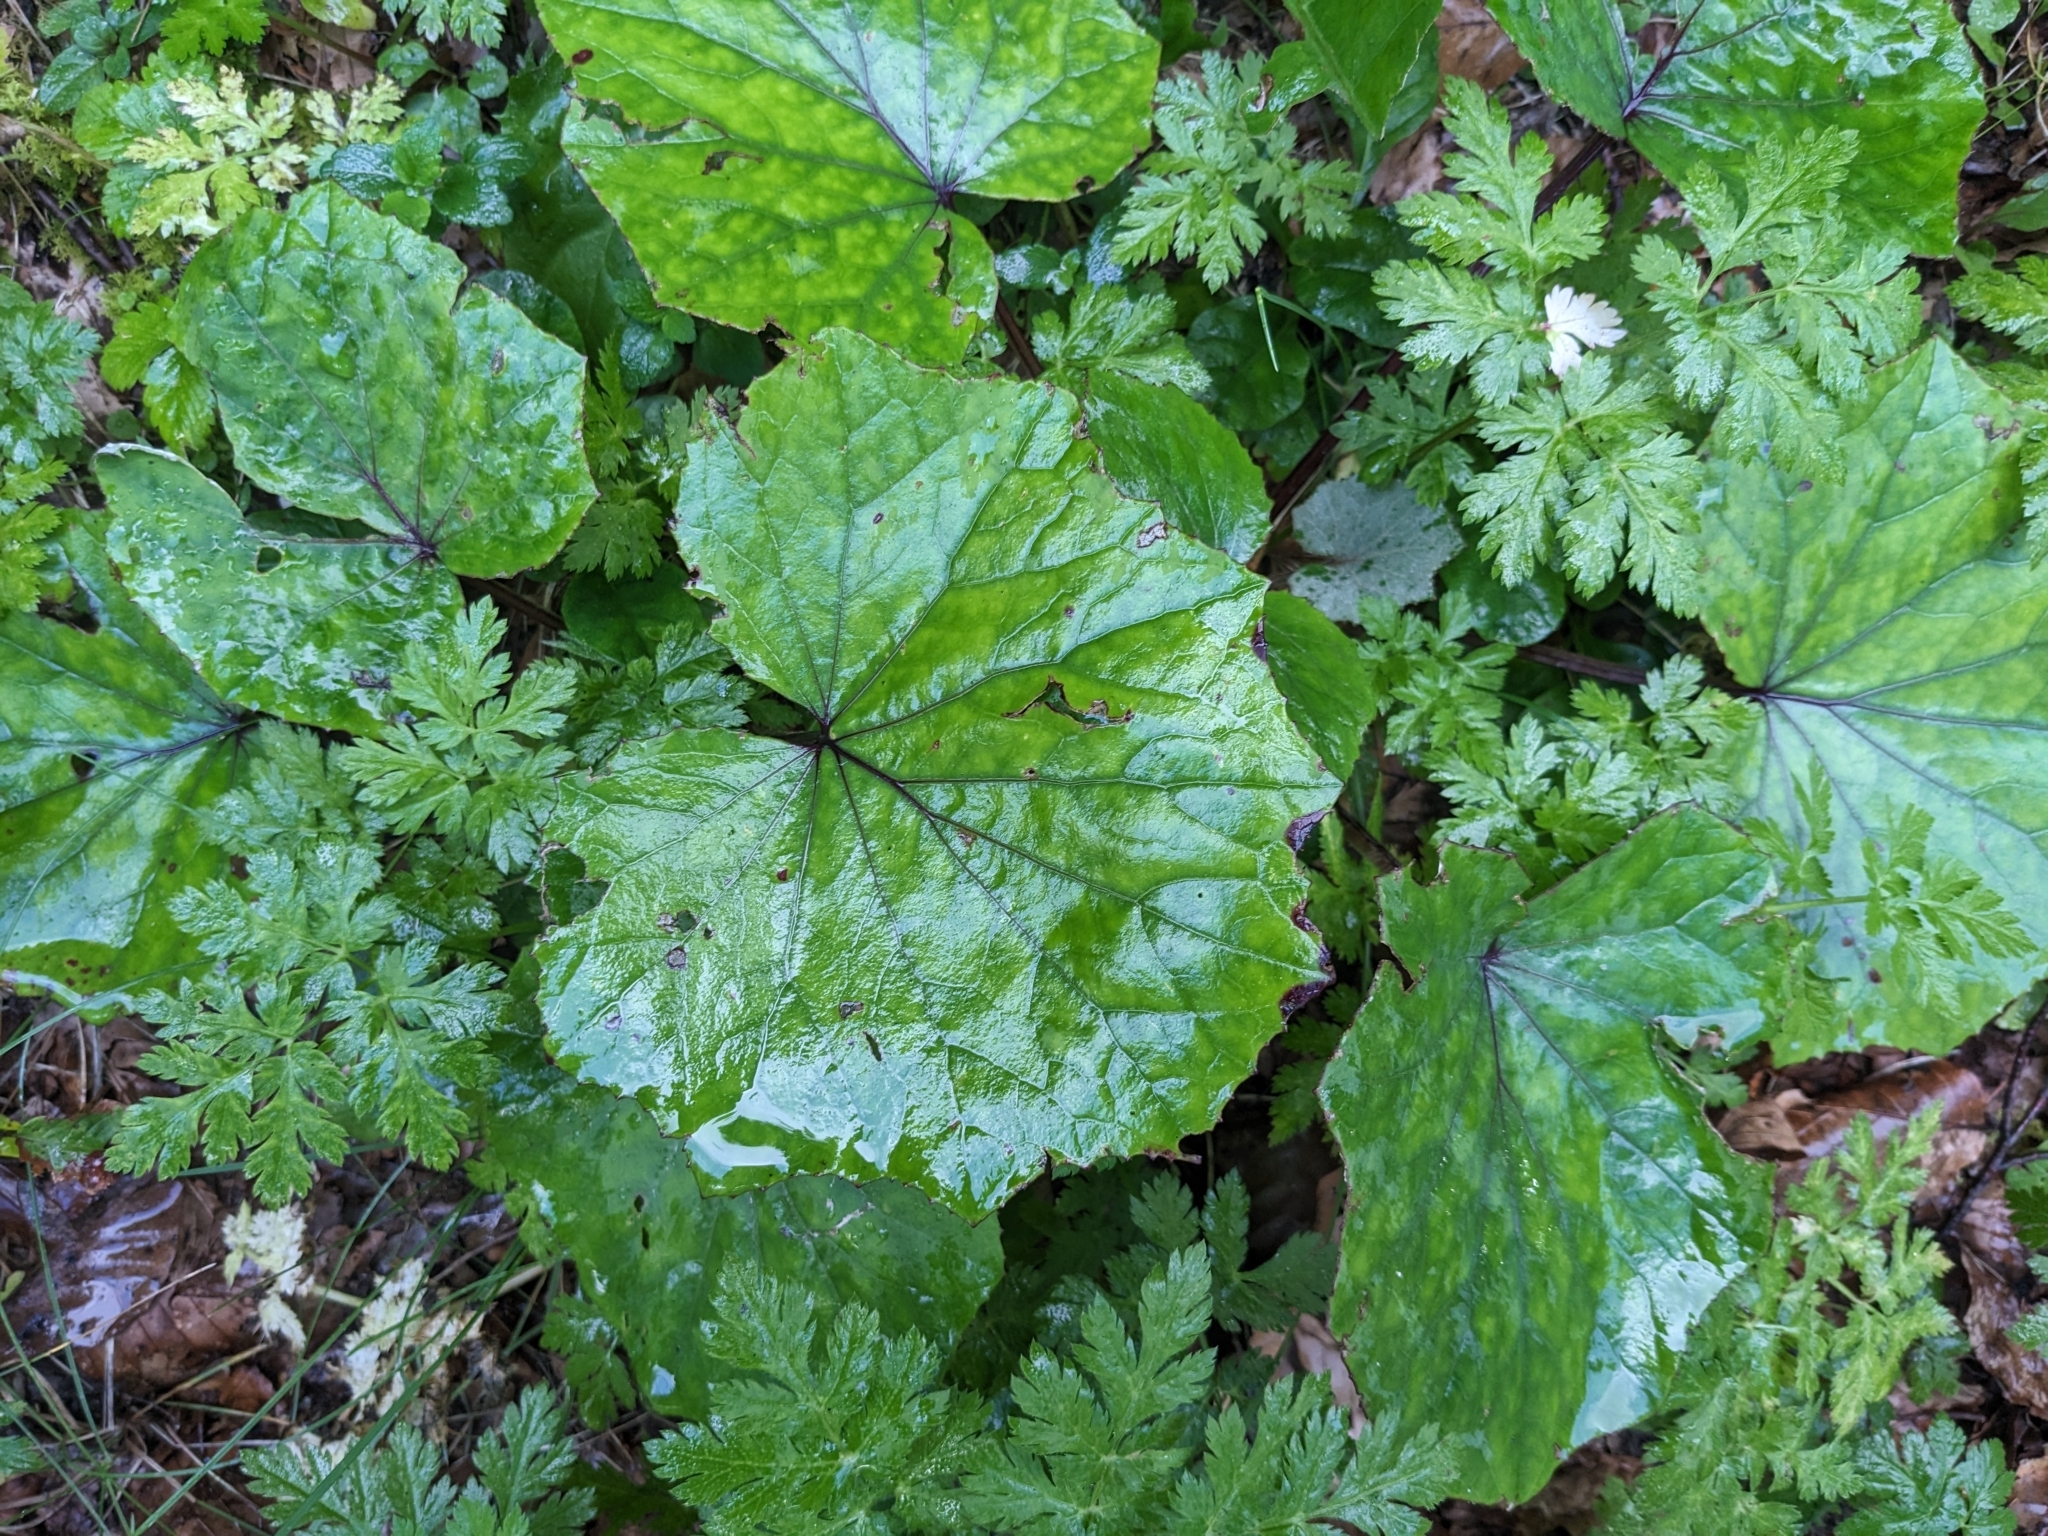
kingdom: Plantae
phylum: Tracheophyta
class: Magnoliopsida
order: Asterales
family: Asteraceae
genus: Tussilago
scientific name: Tussilago farfara
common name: Coltsfoot
